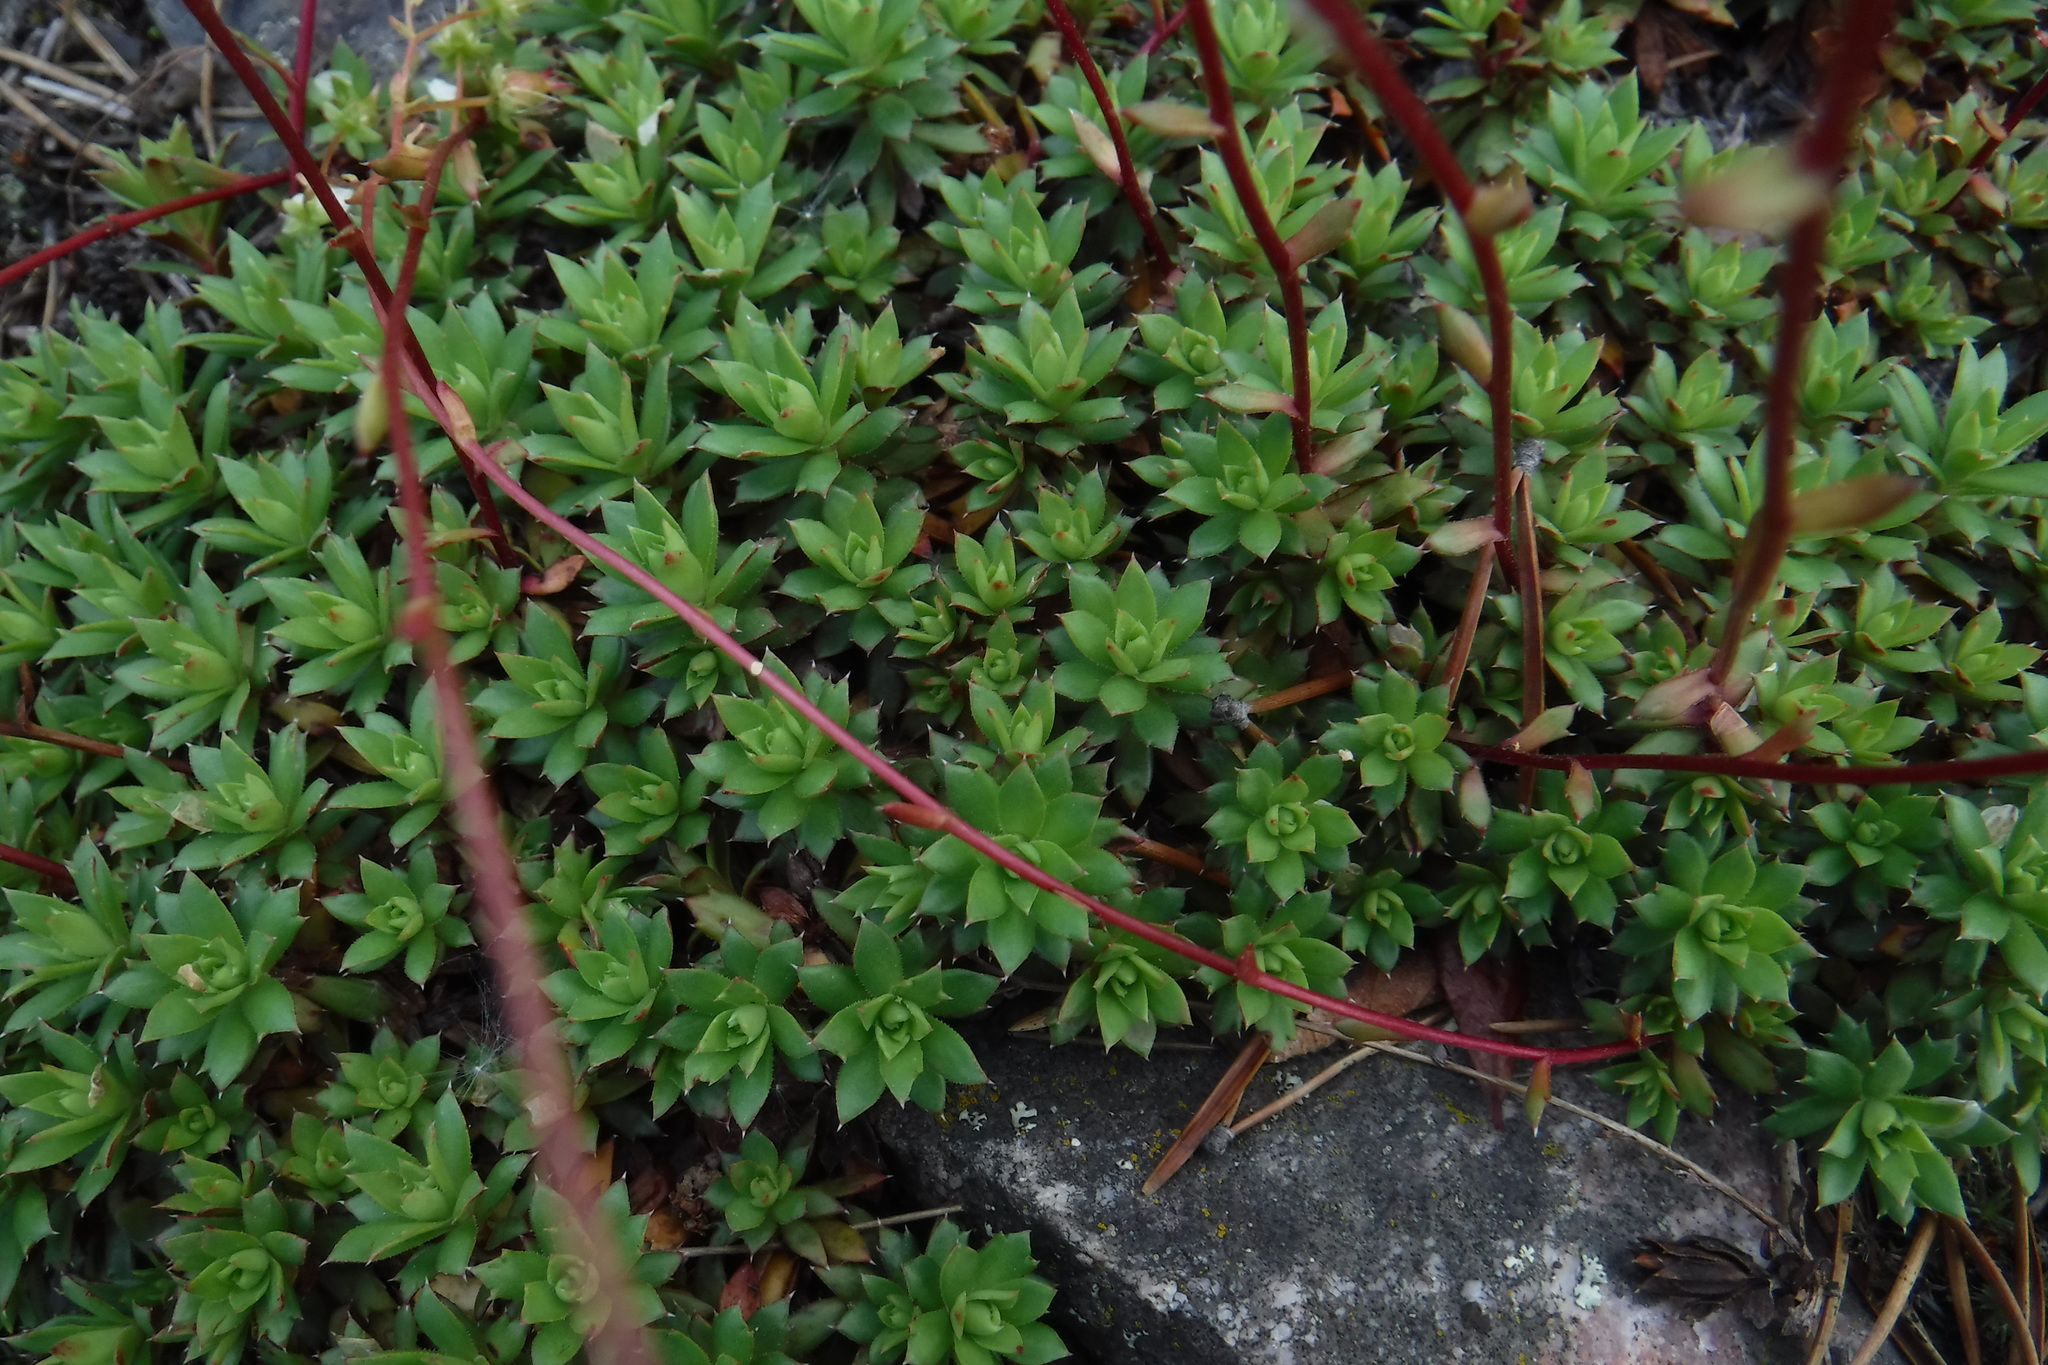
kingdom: Plantae
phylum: Tracheophyta
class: Magnoliopsida
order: Saxifragales
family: Saxifragaceae
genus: Saxifraga
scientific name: Saxifraga tricuspidata
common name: Prickly saxifrage
